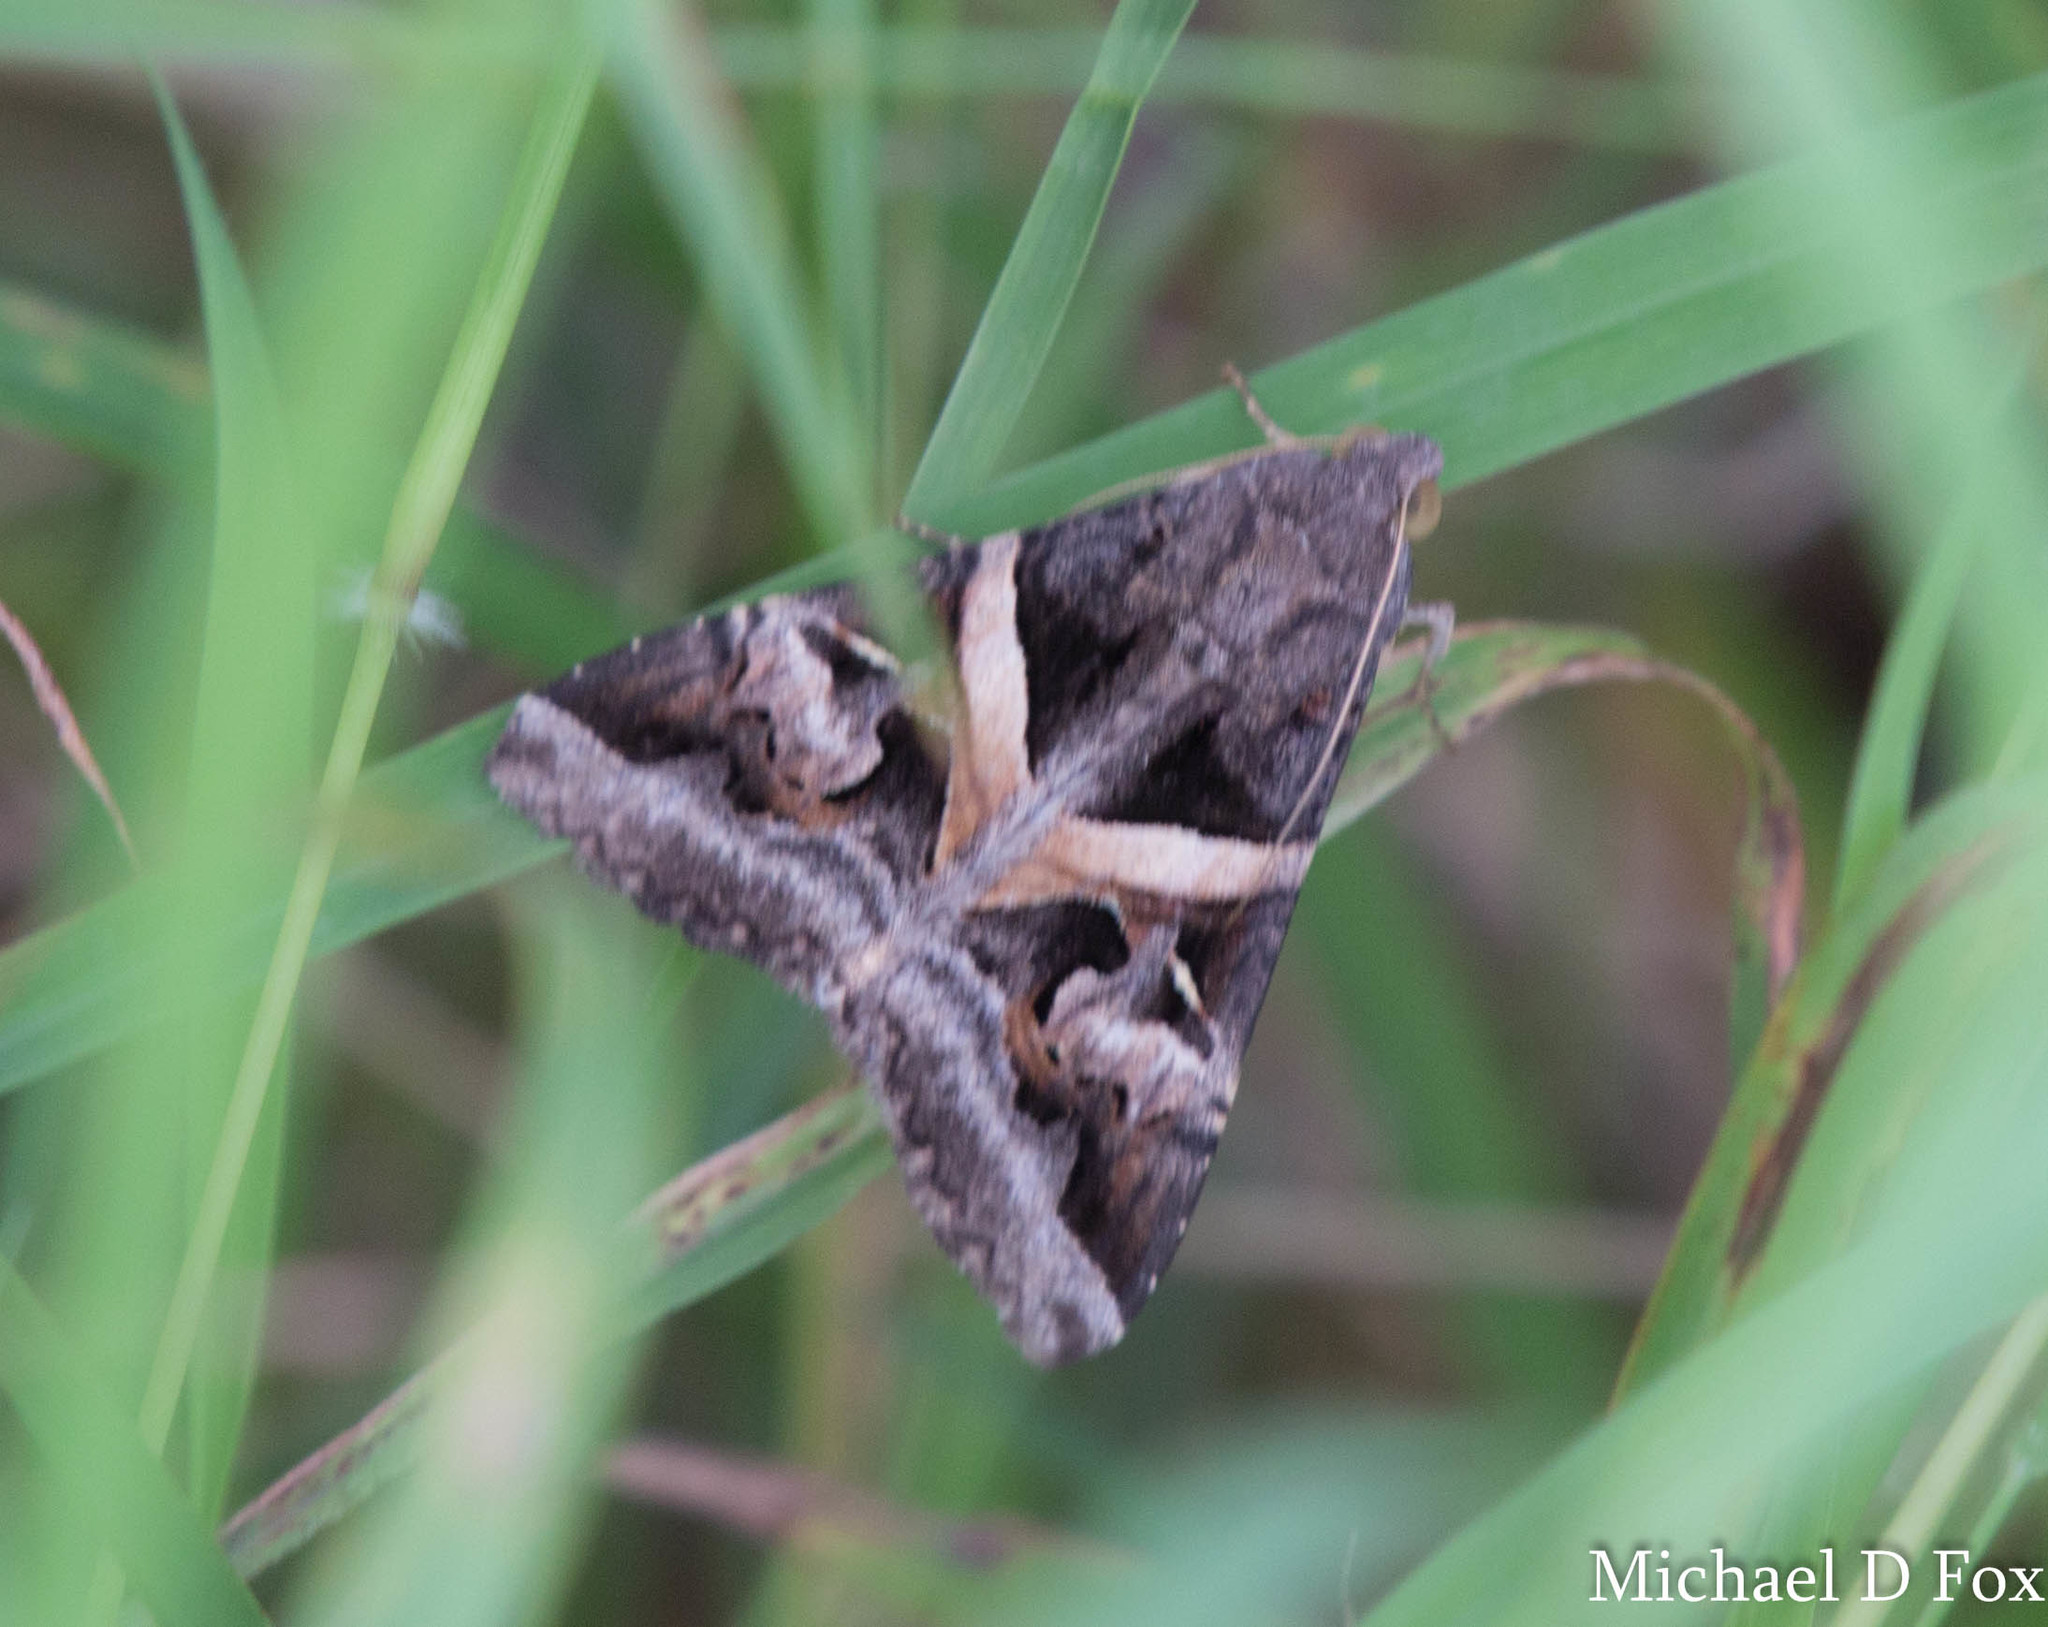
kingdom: Animalia
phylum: Arthropoda
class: Insecta
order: Lepidoptera
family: Erebidae
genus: Melipotis
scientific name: Melipotis indomita
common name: Moth
